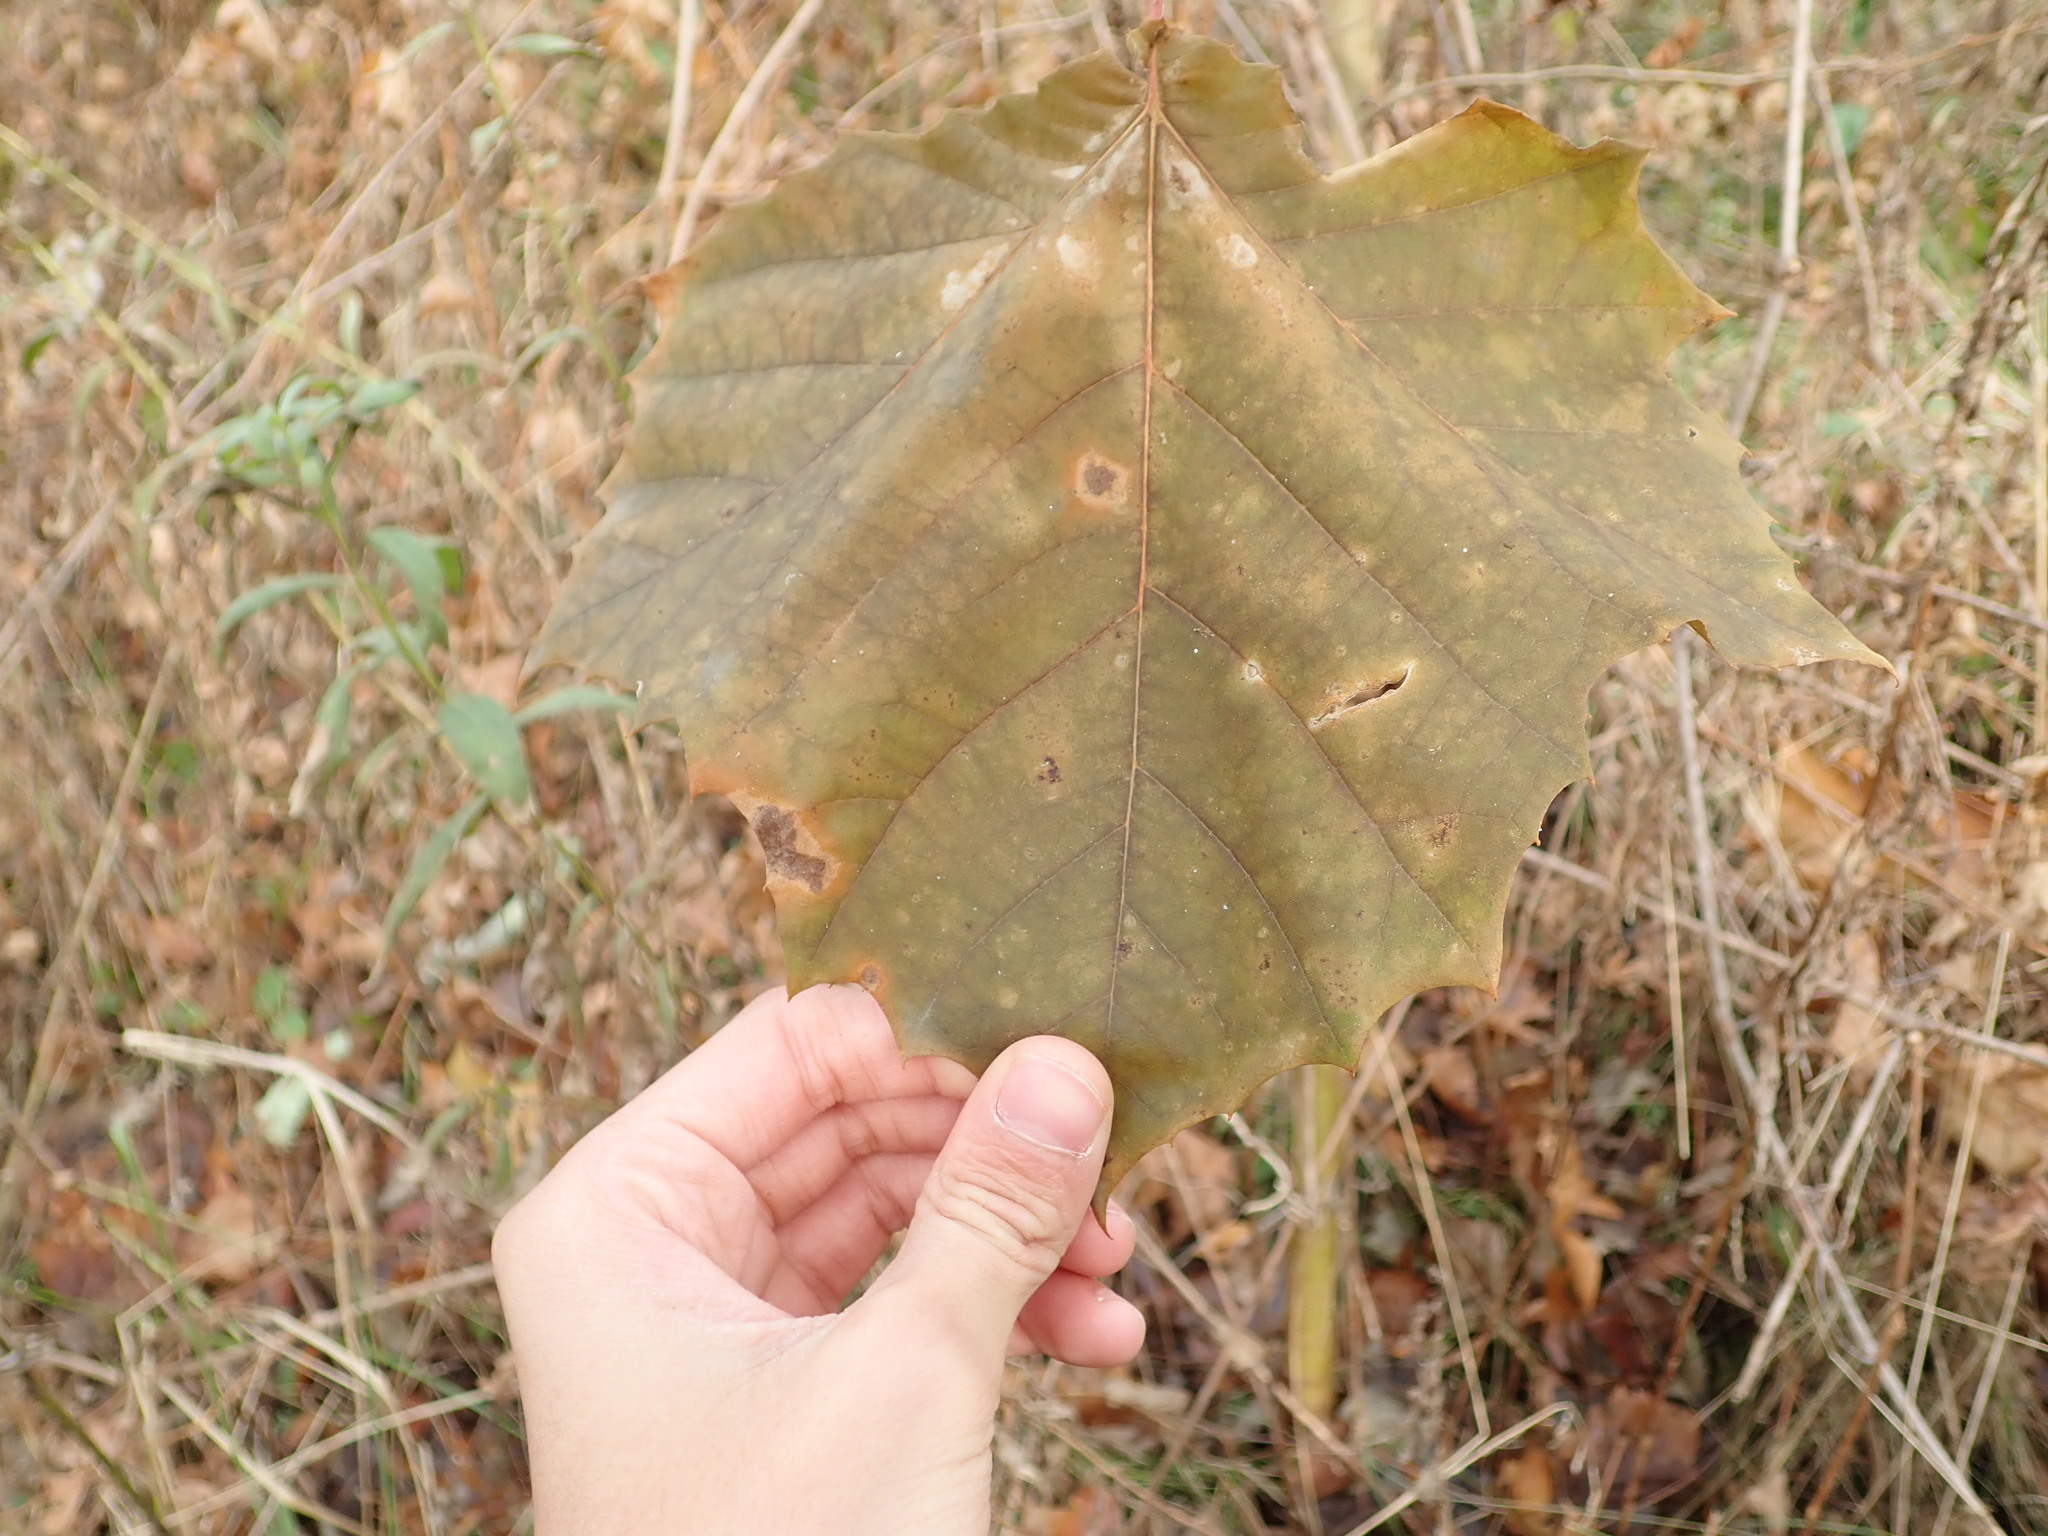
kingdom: Plantae
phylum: Tracheophyta
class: Magnoliopsida
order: Proteales
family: Platanaceae
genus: Platanus
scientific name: Platanus occidentalis
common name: American sycamore
